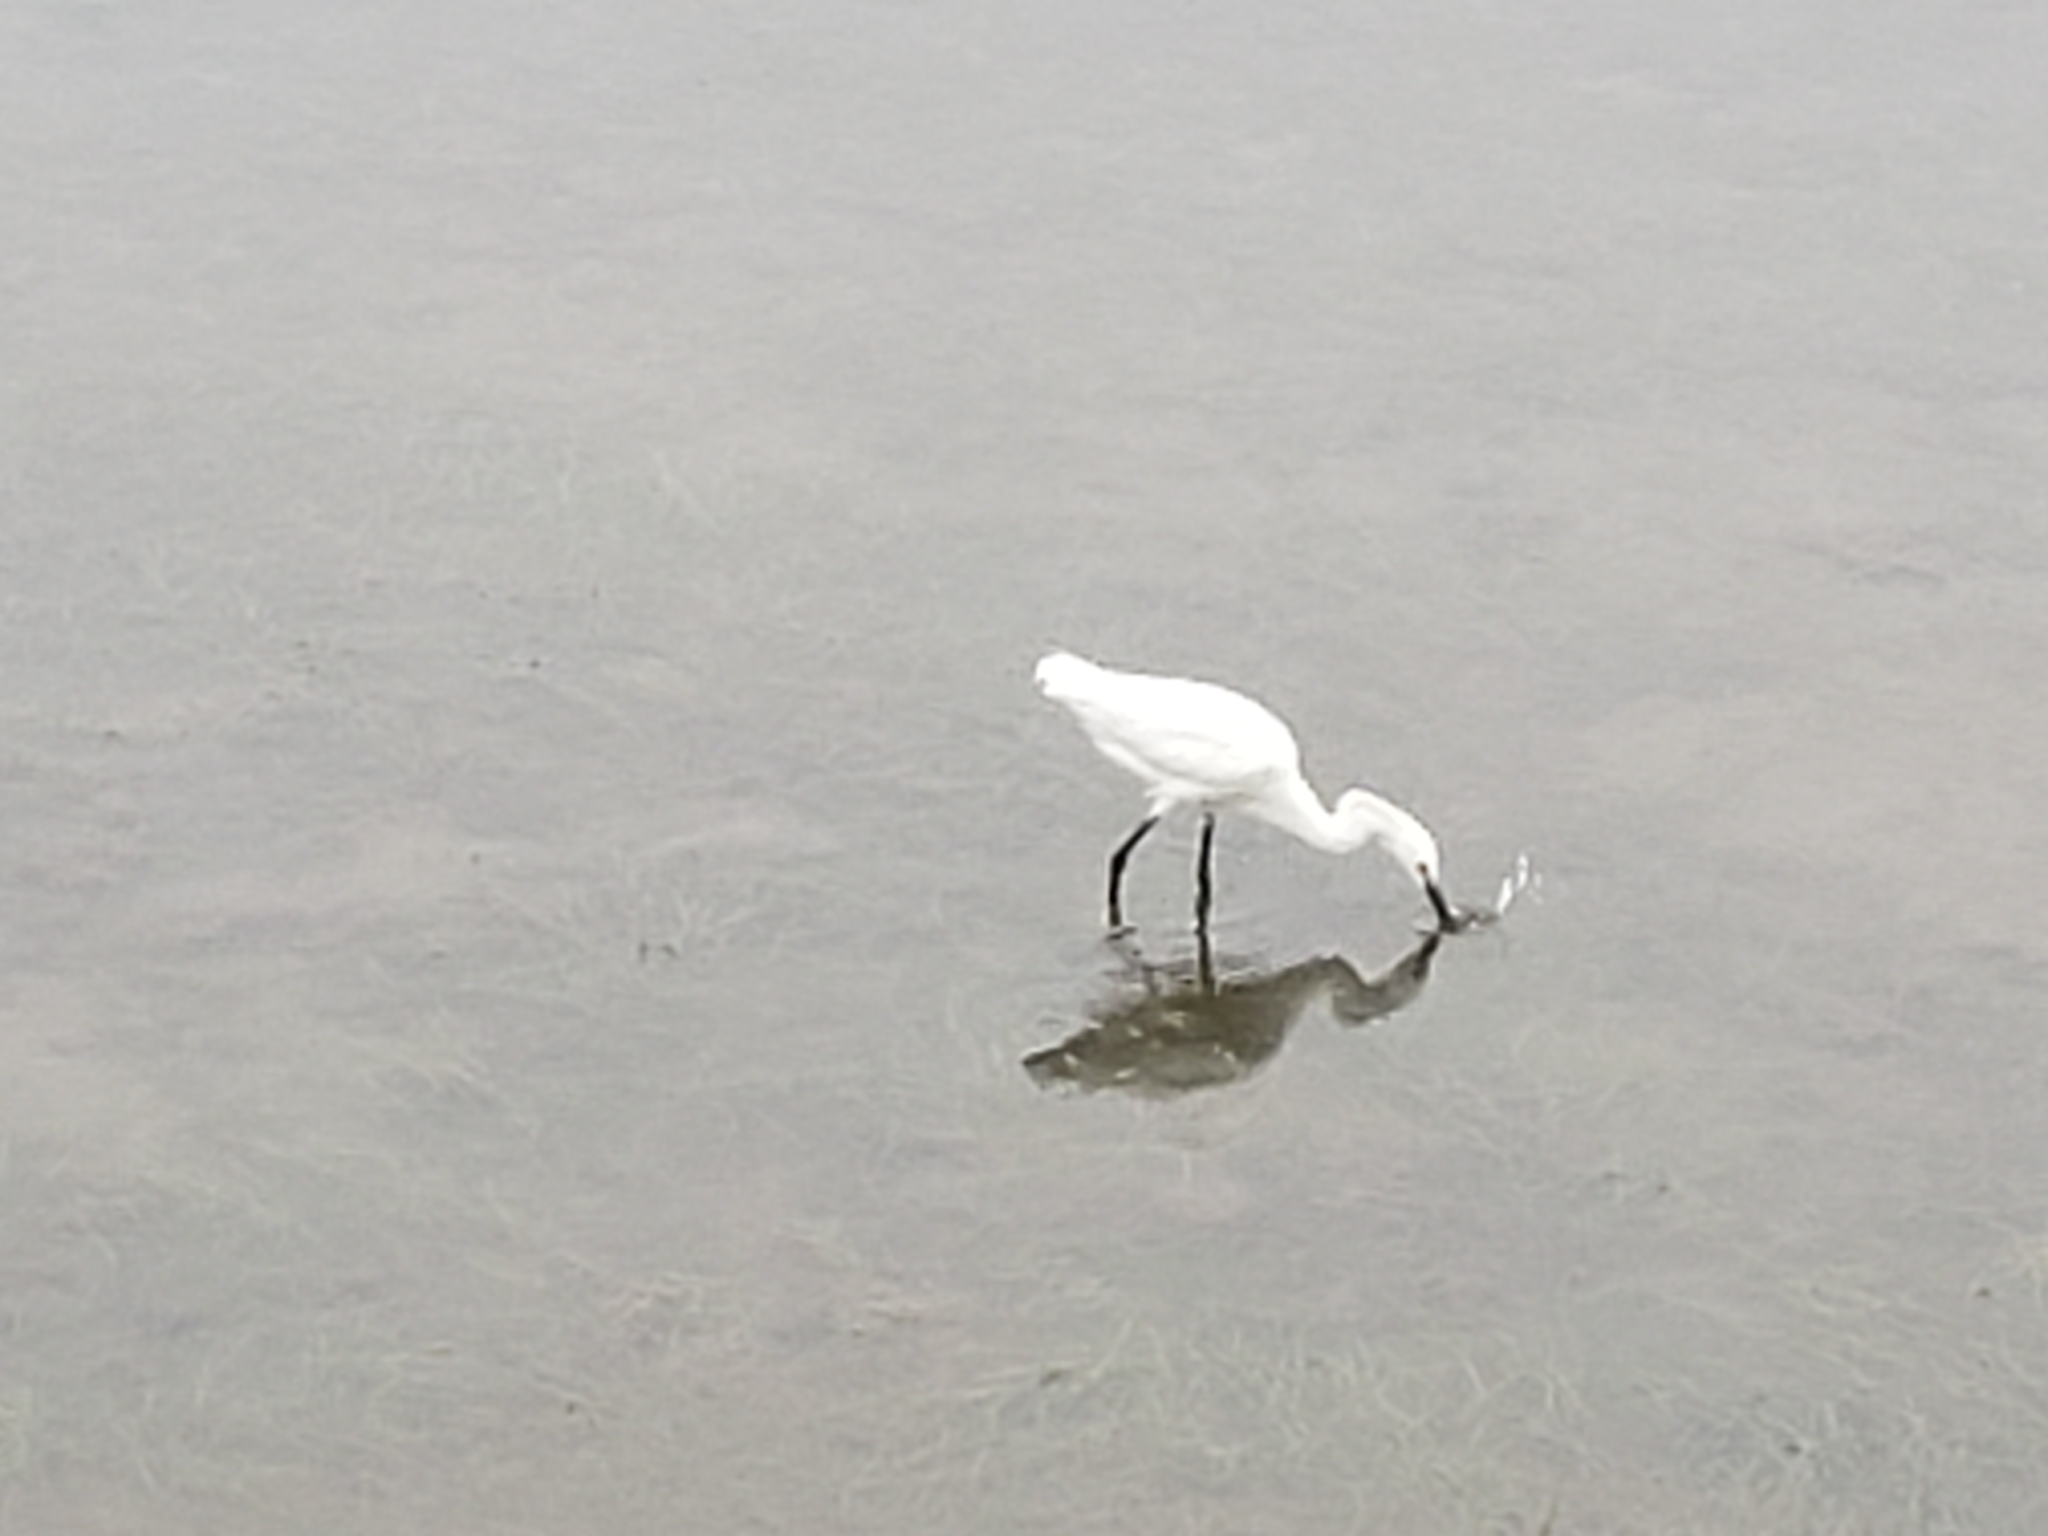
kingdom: Animalia
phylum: Chordata
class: Aves
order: Pelecaniformes
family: Ardeidae
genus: Egretta
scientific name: Egretta thula
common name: Snowy egret
